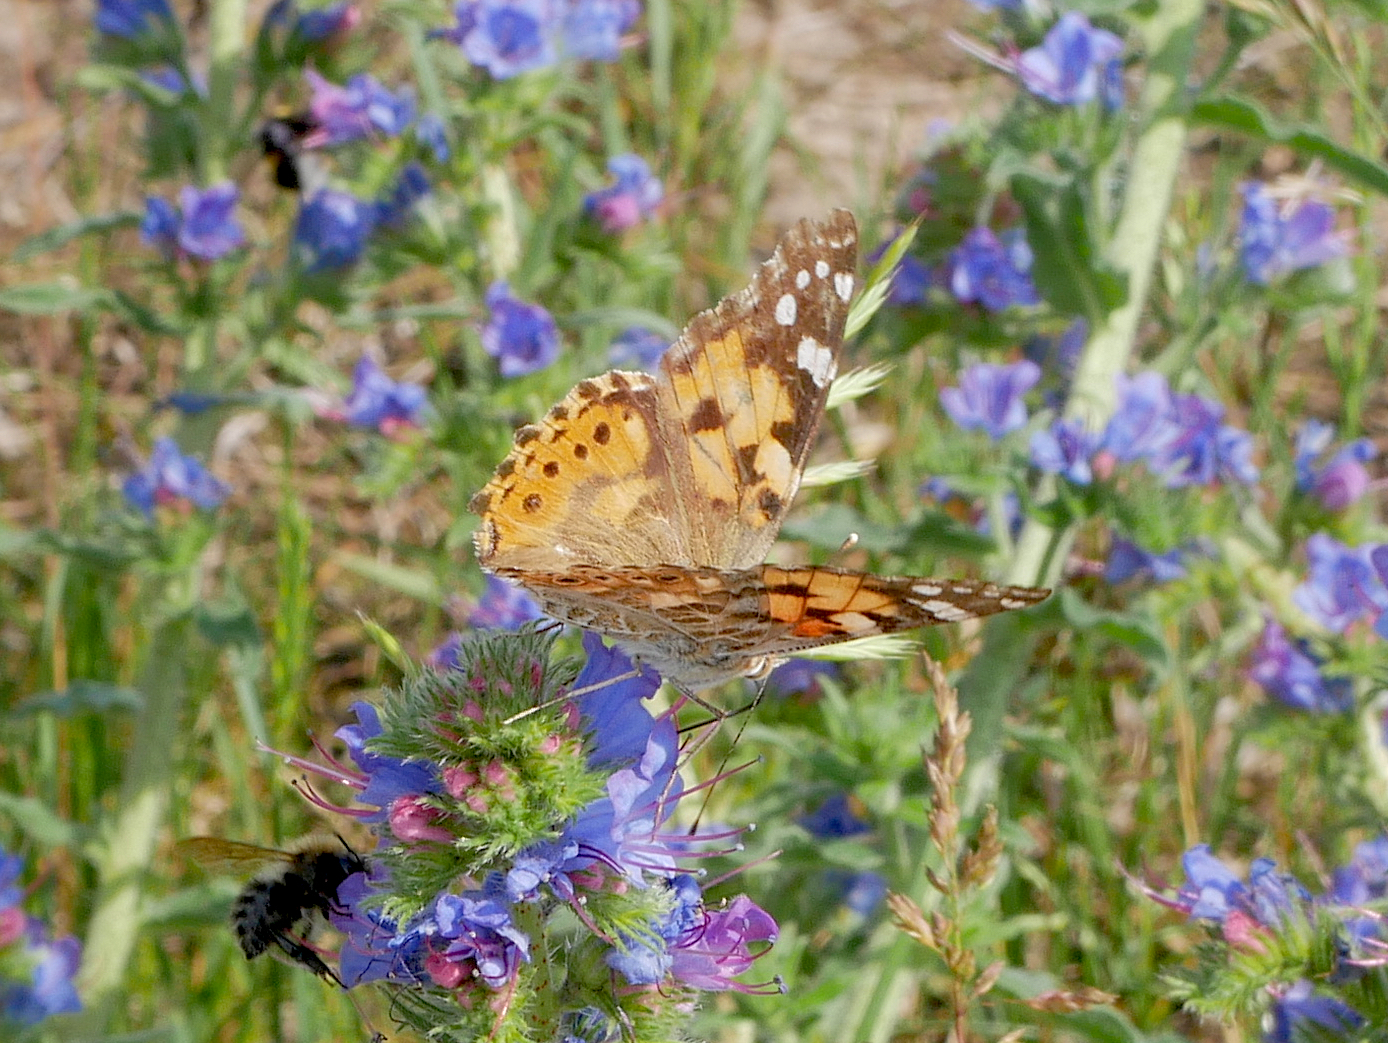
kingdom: Animalia
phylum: Arthropoda
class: Insecta
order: Lepidoptera
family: Nymphalidae
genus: Vanessa
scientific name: Vanessa cardui
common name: Painted lady
